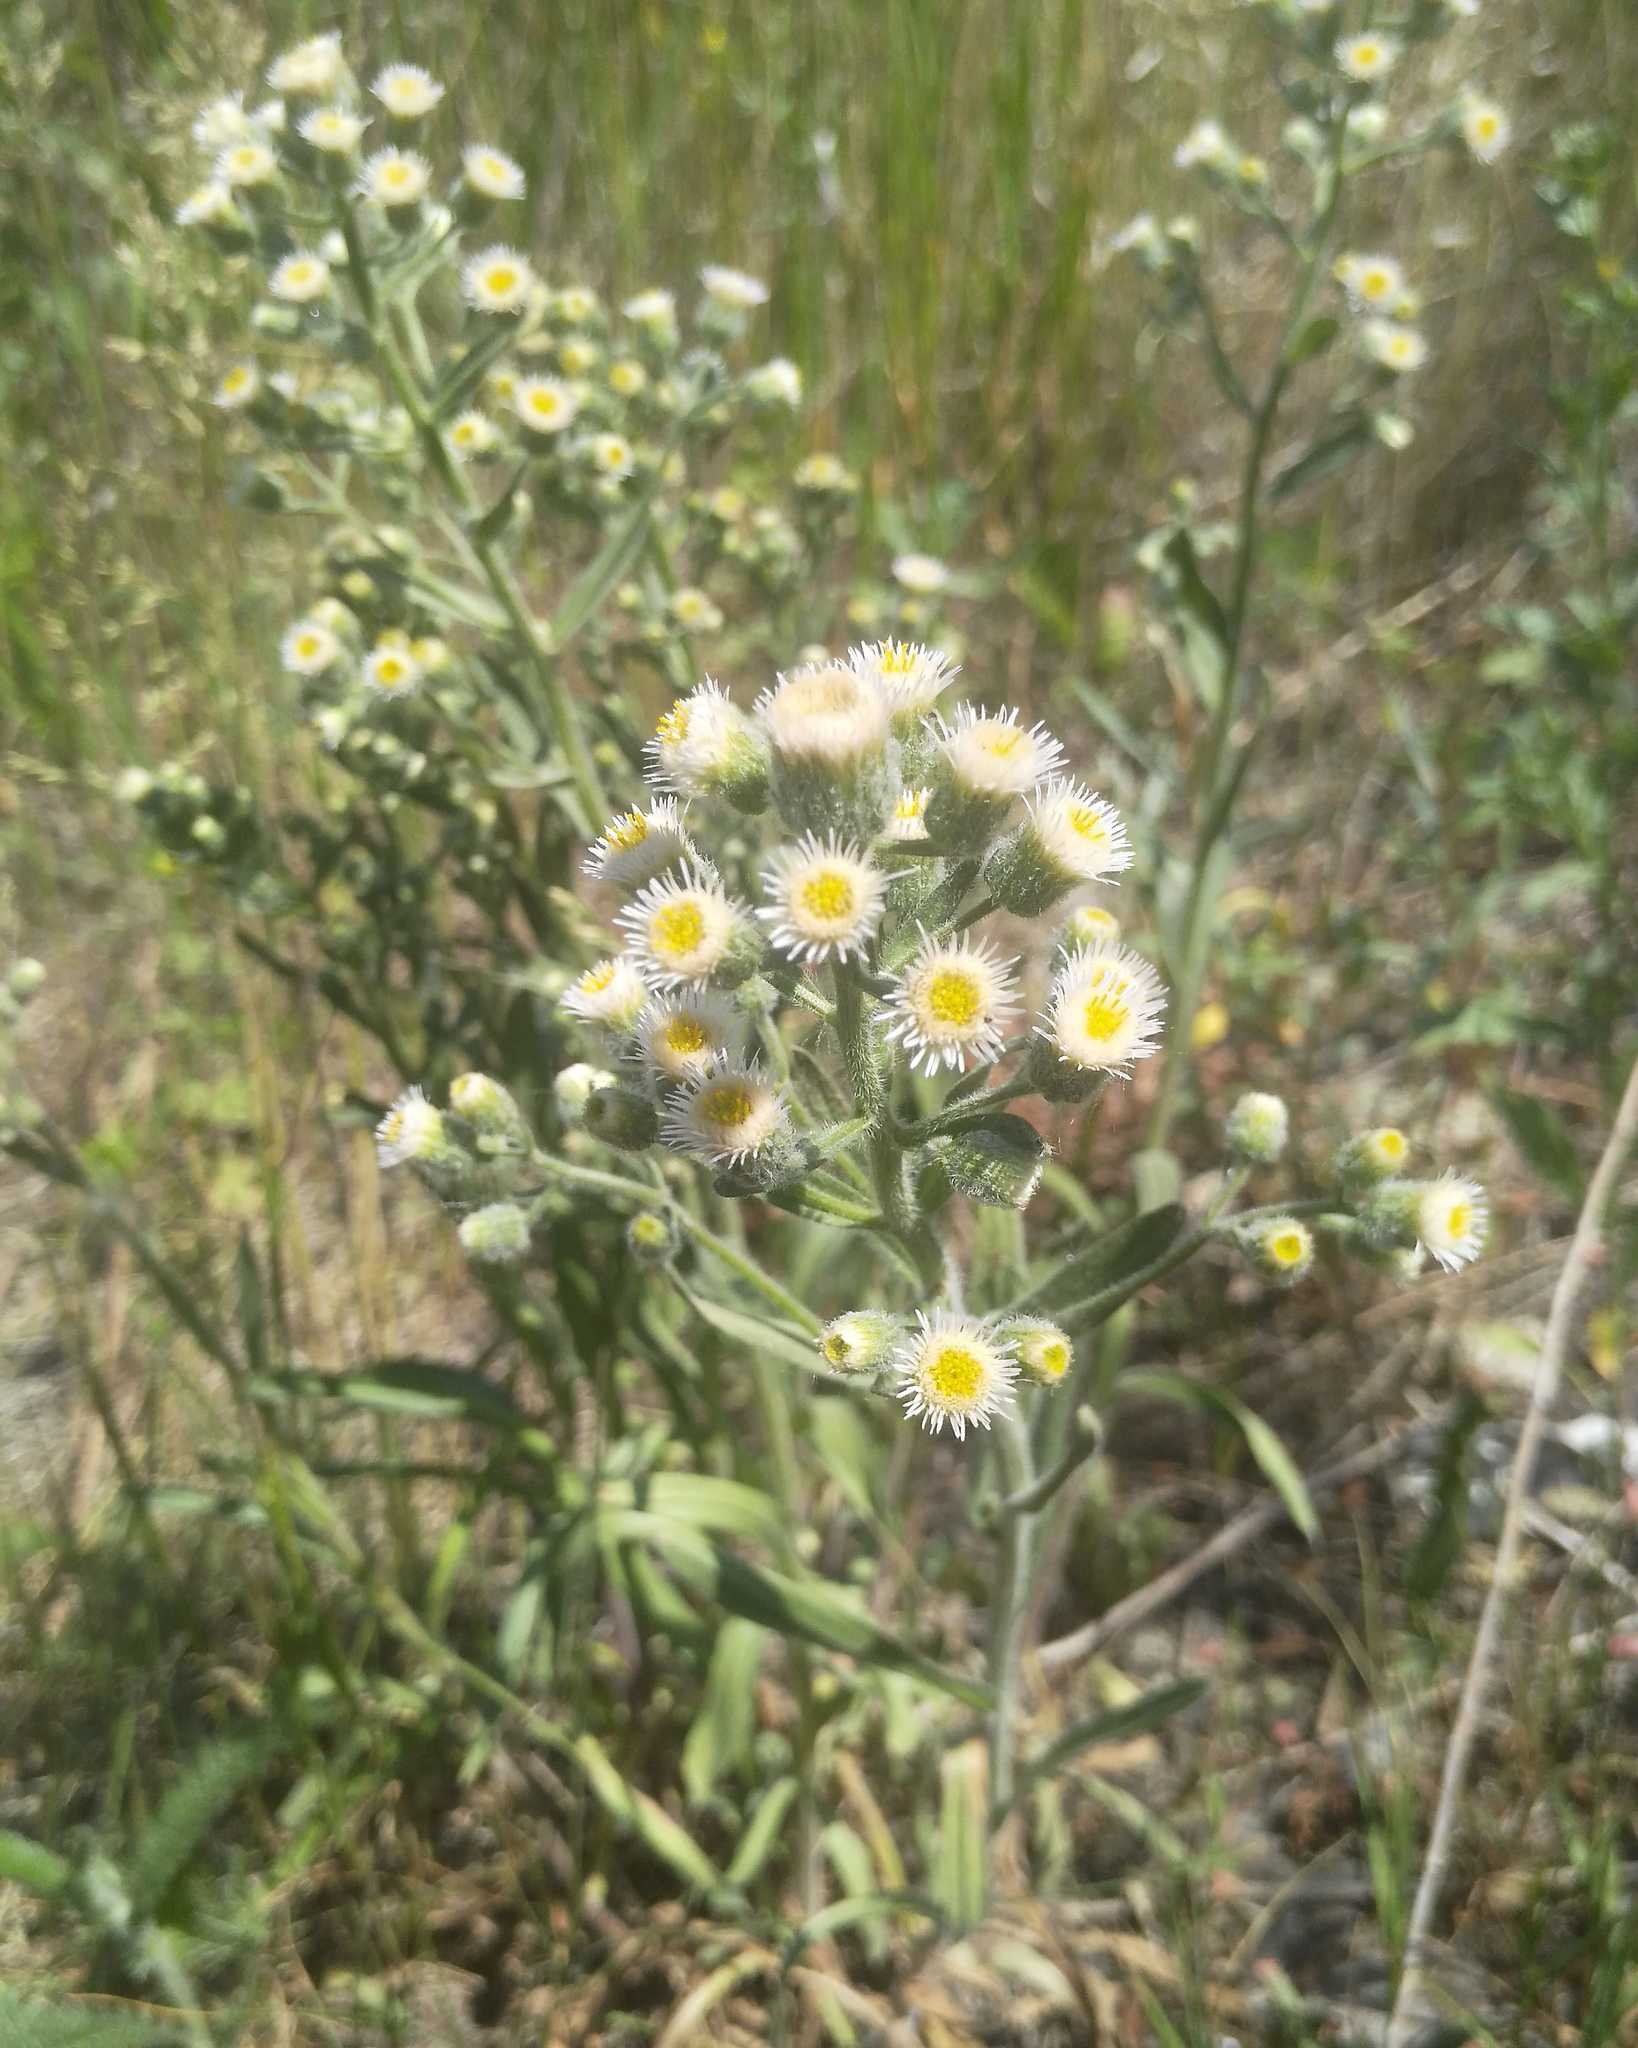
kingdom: Plantae
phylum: Tracheophyta
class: Magnoliopsida
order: Asterales
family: Asteraceae
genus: Erigeron
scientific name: Erigeron acris
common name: Blue fleabane
